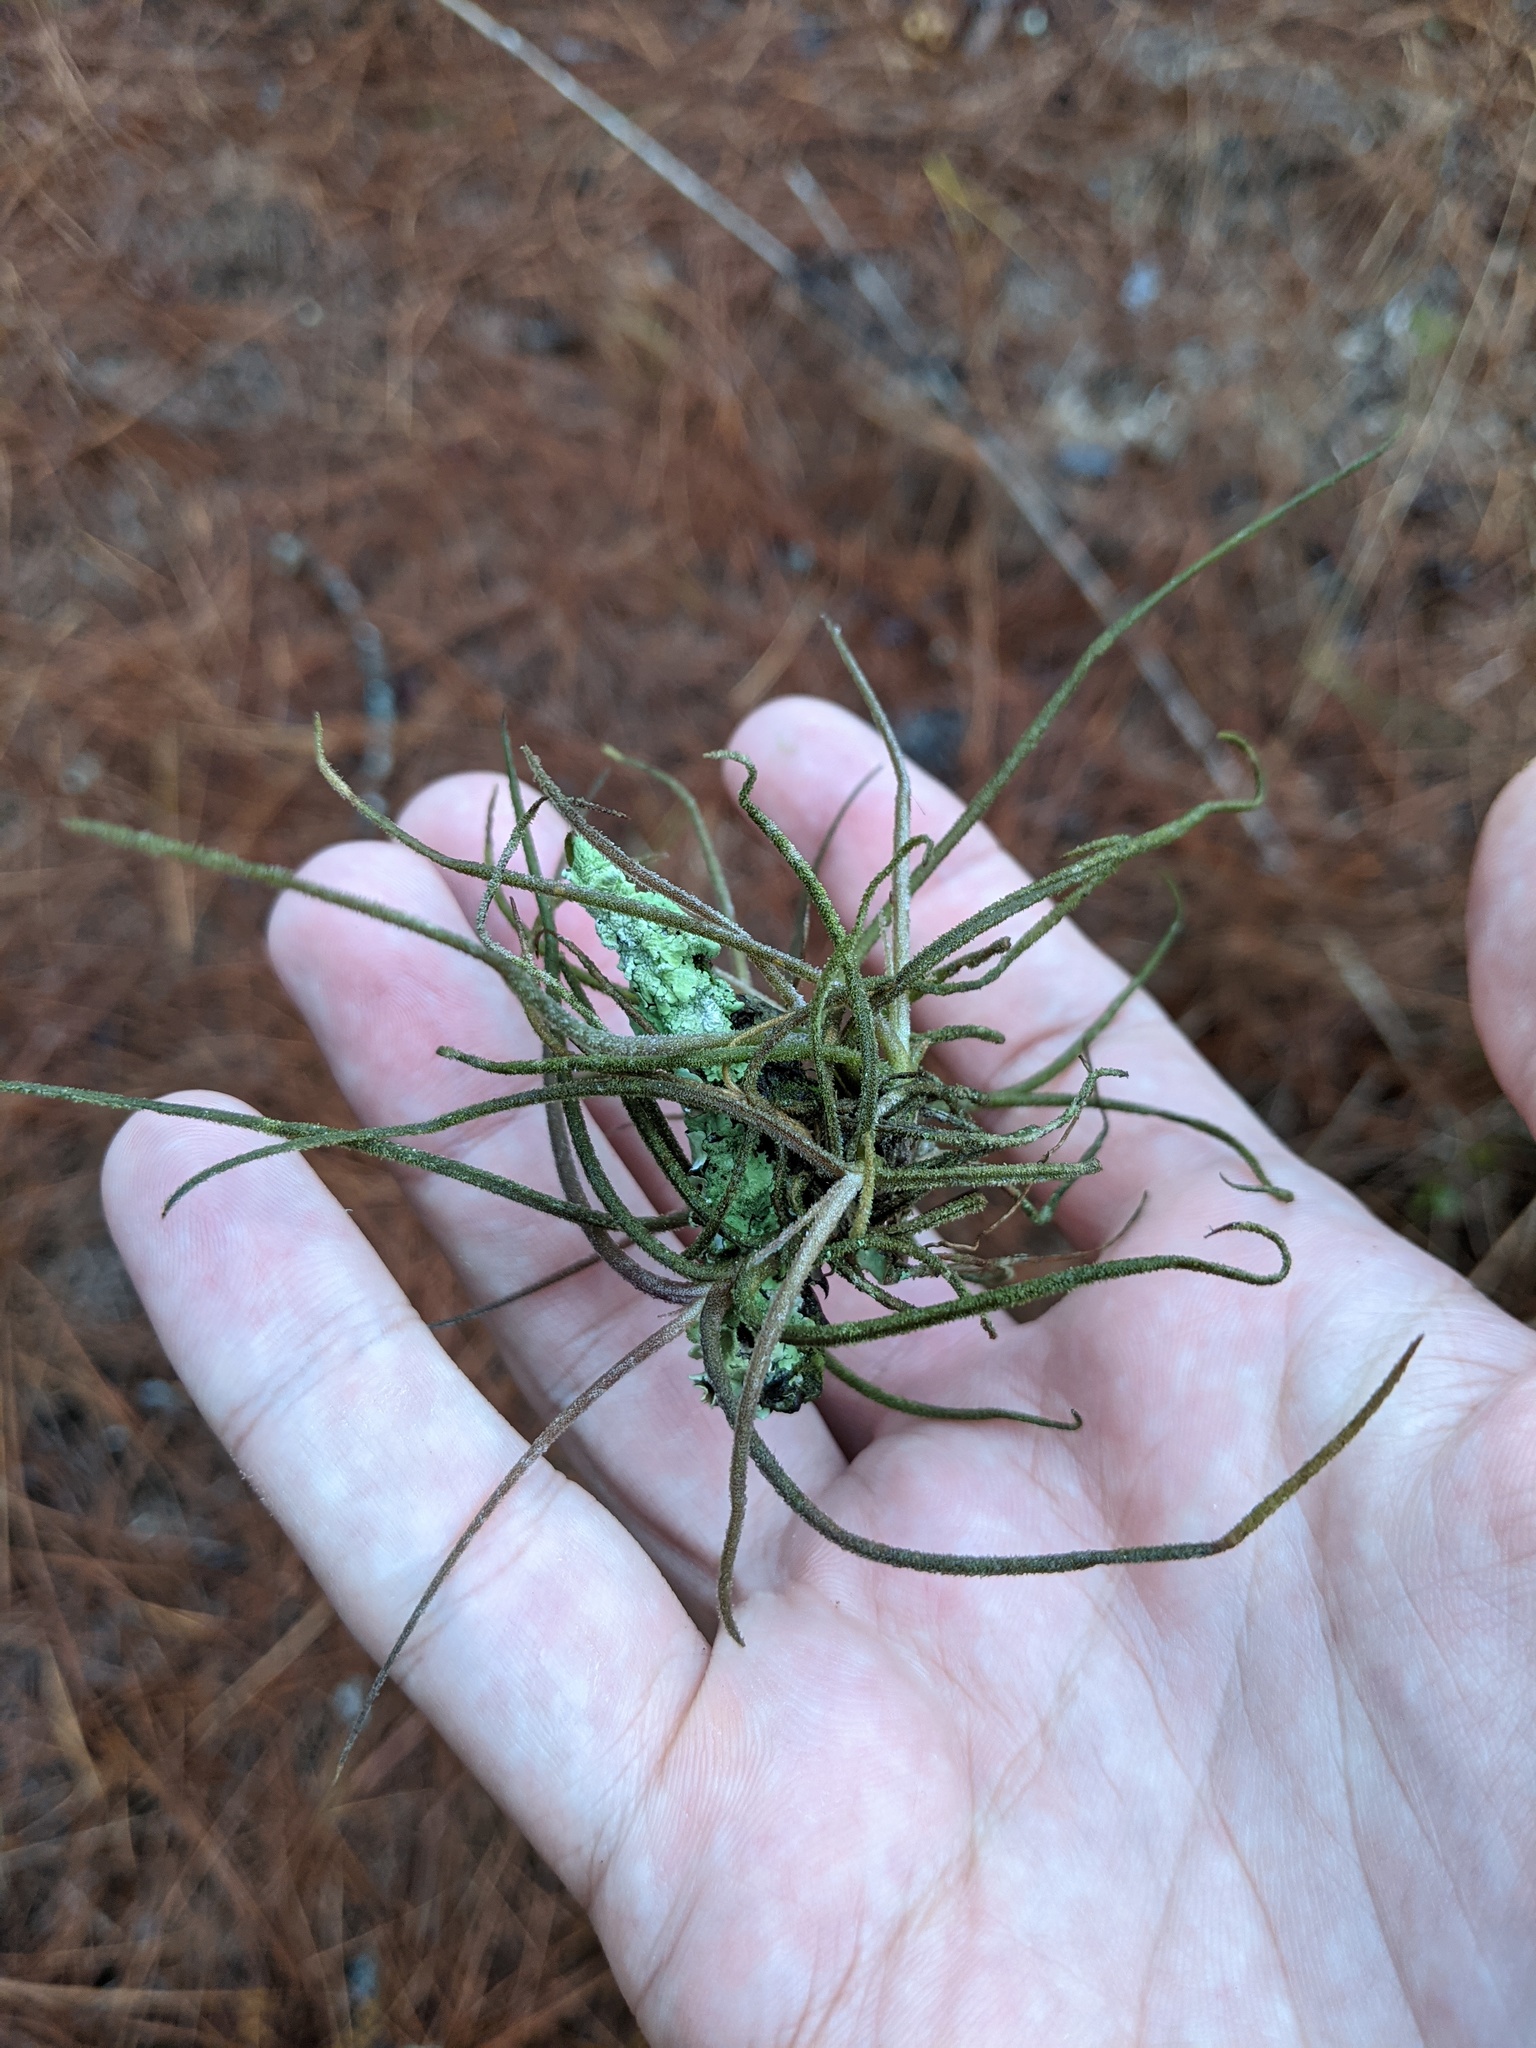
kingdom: Plantae
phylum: Tracheophyta
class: Liliopsida
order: Poales
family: Bromeliaceae
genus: Tillandsia
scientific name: Tillandsia recurvata
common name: Small ballmoss
